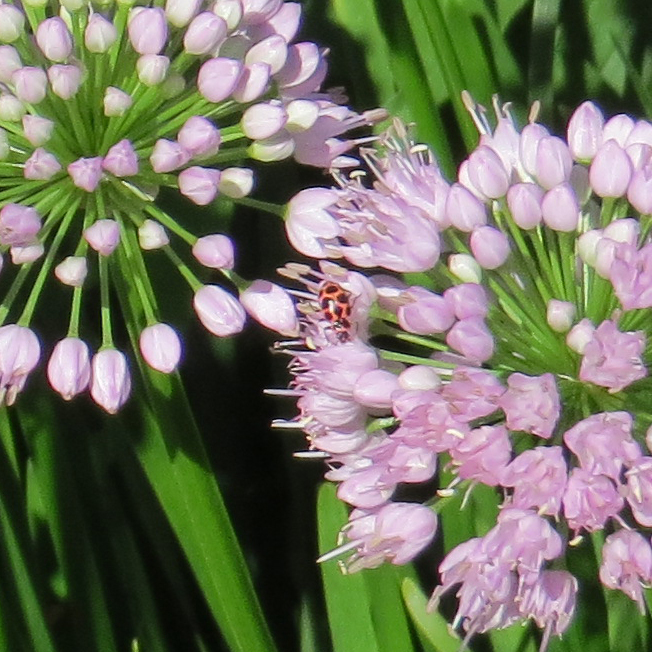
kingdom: Animalia
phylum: Arthropoda
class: Insecta
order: Coleoptera
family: Coccinellidae
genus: Coleomegilla
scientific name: Coleomegilla maculata
